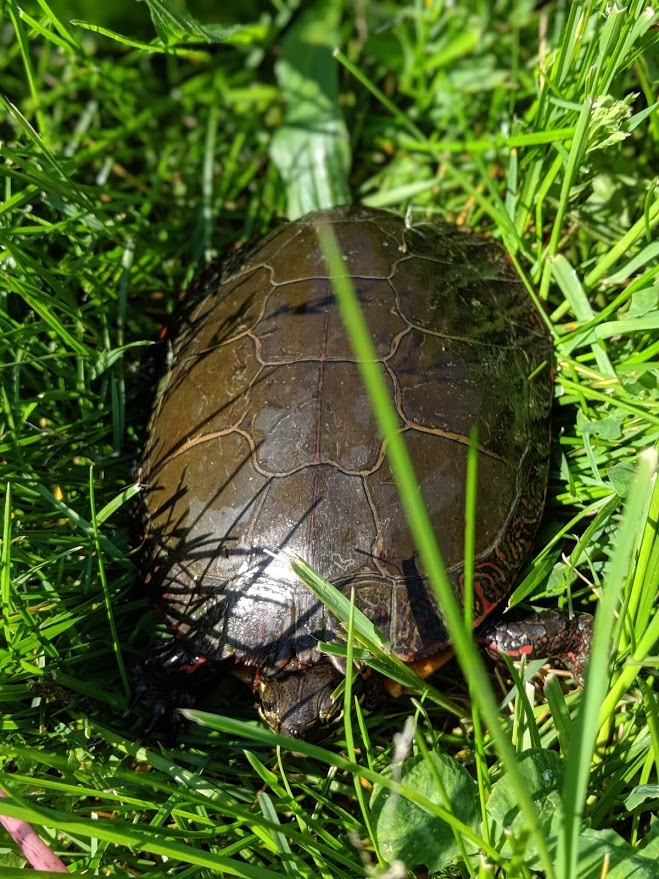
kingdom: Animalia
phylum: Chordata
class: Testudines
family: Emydidae
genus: Chrysemys
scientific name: Chrysemys picta
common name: Painted turtle
